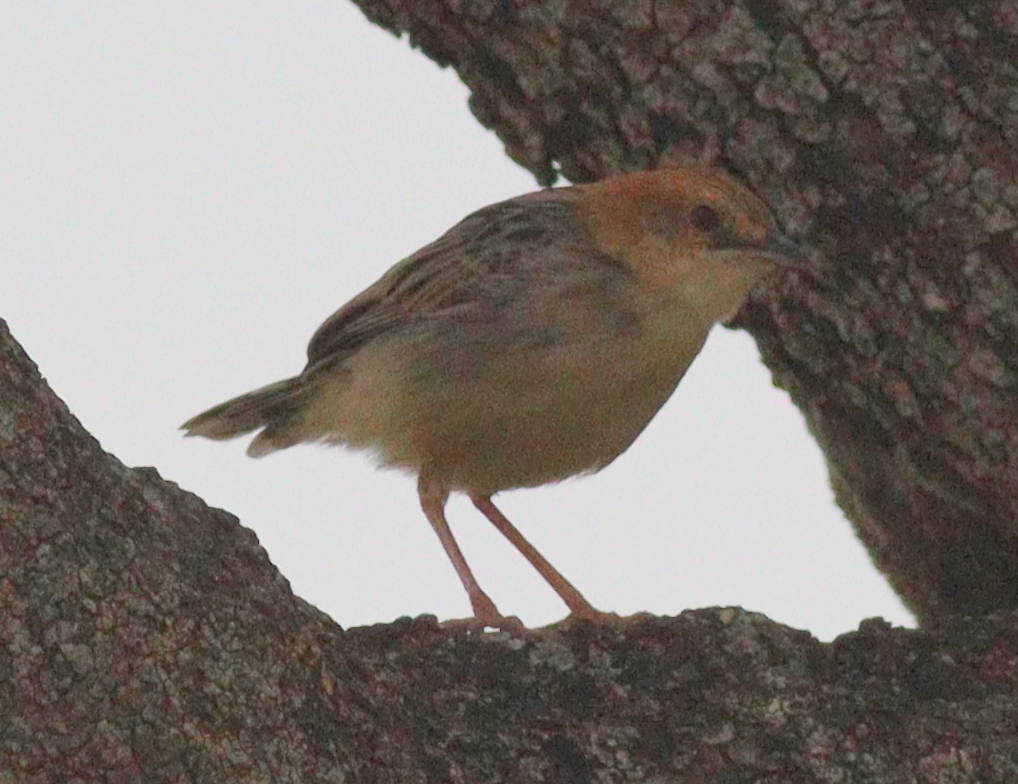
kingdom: Animalia
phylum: Chordata
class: Aves
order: Passeriformes
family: Cisticolidae
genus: Cisticola
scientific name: Cisticola robustus
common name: Stout cisticola
